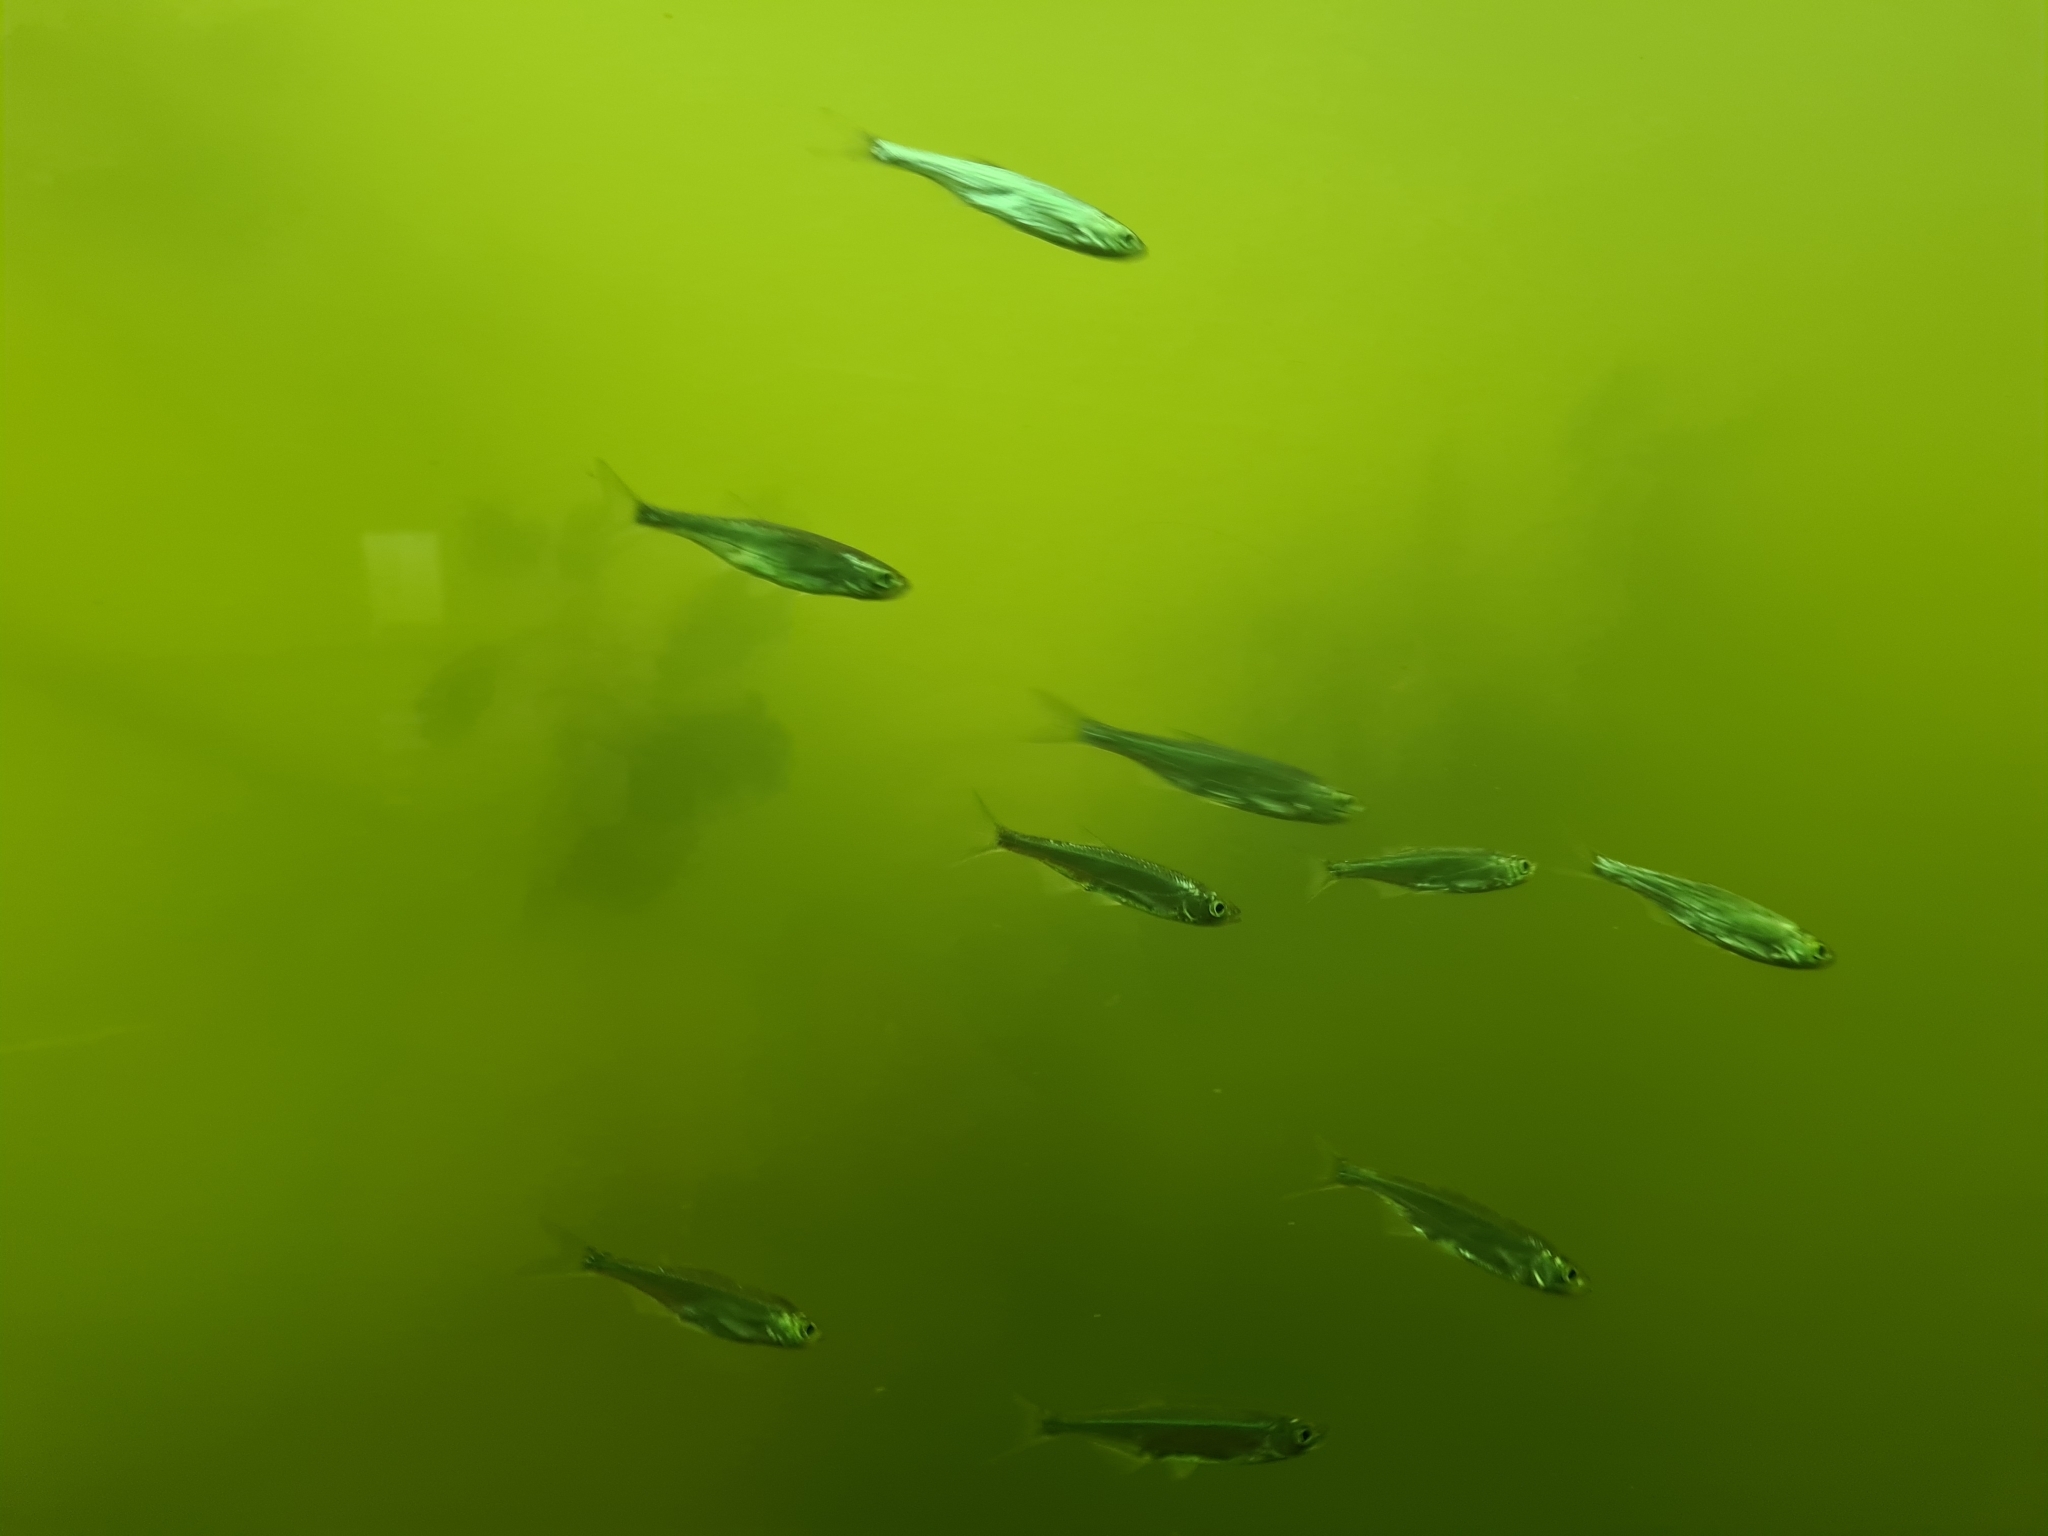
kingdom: Animalia
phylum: Chordata
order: Cypriniformes
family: Cyprinidae
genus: Alburnus
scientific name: Alburnus alburnus
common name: Bleak
